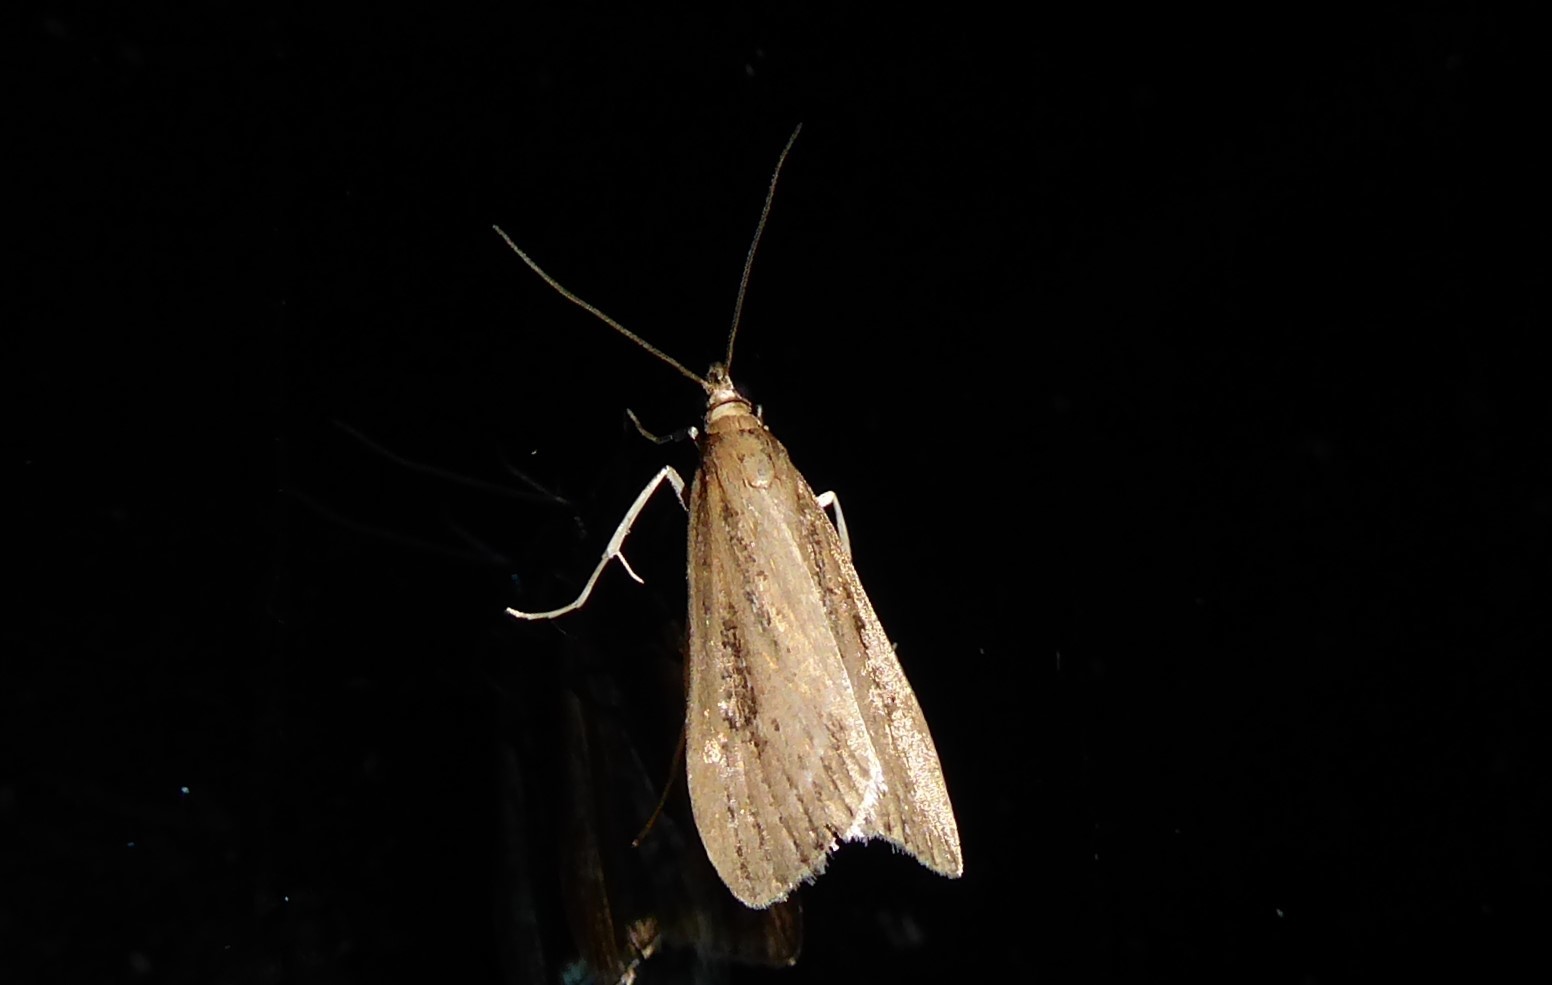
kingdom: Animalia
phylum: Arthropoda
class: Insecta
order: Lepidoptera
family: Crambidae
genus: Eudonia
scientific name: Eudonia octophora
